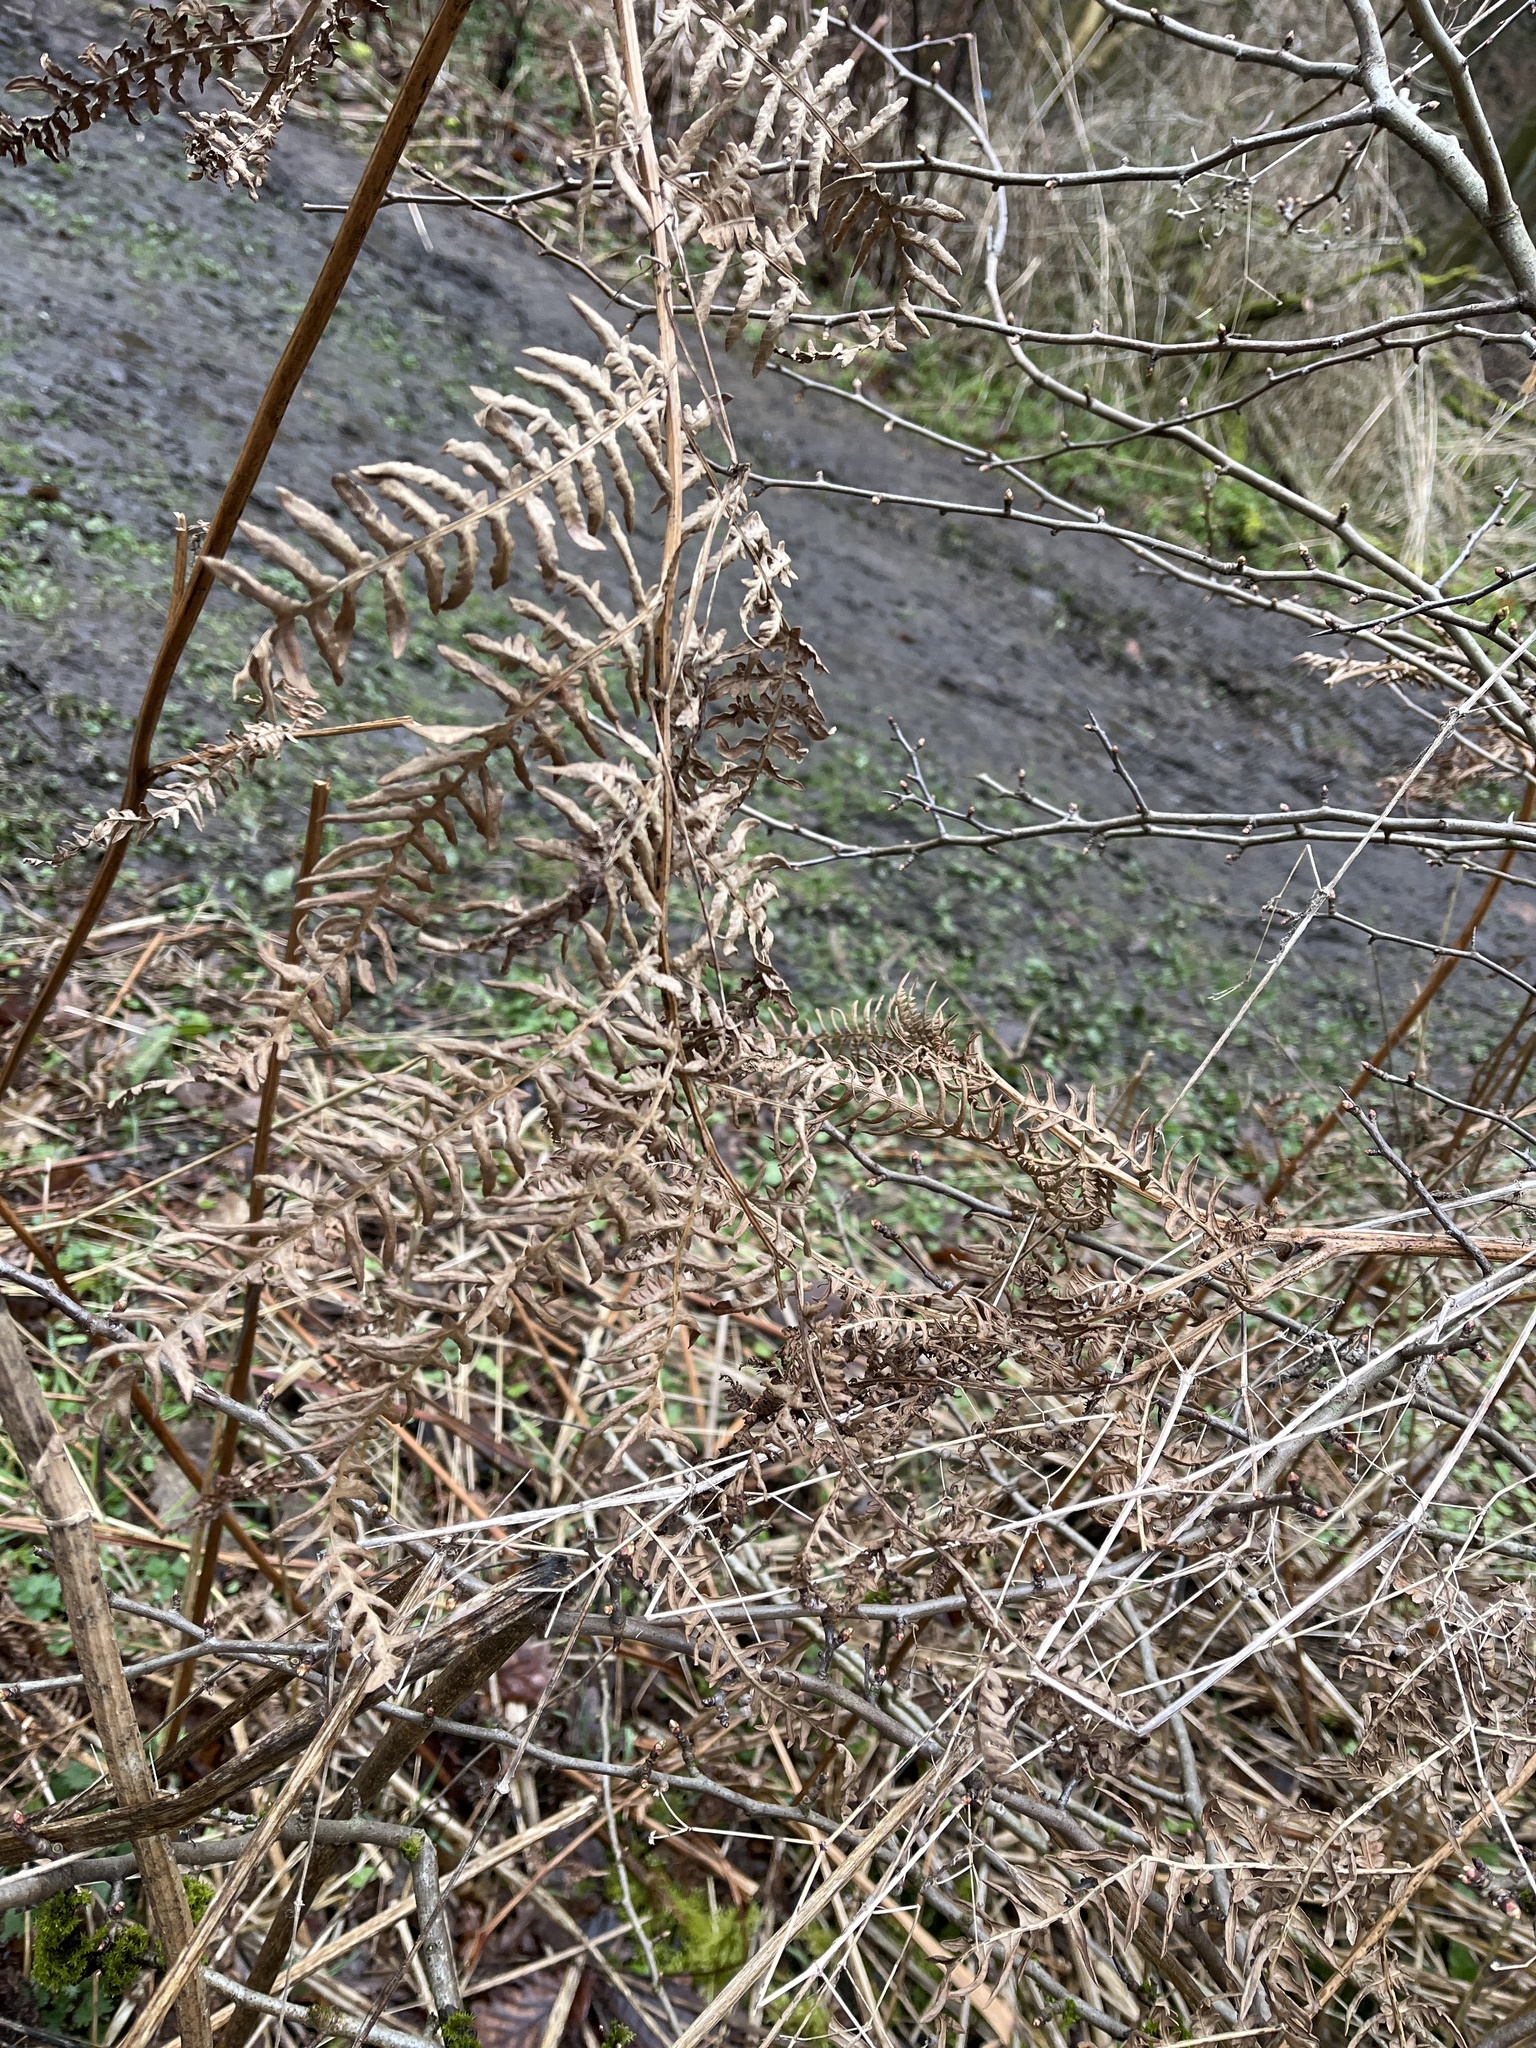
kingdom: Plantae
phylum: Tracheophyta
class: Polypodiopsida
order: Polypodiales
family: Dennstaedtiaceae
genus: Pteridium
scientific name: Pteridium aquilinum
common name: Bracken
